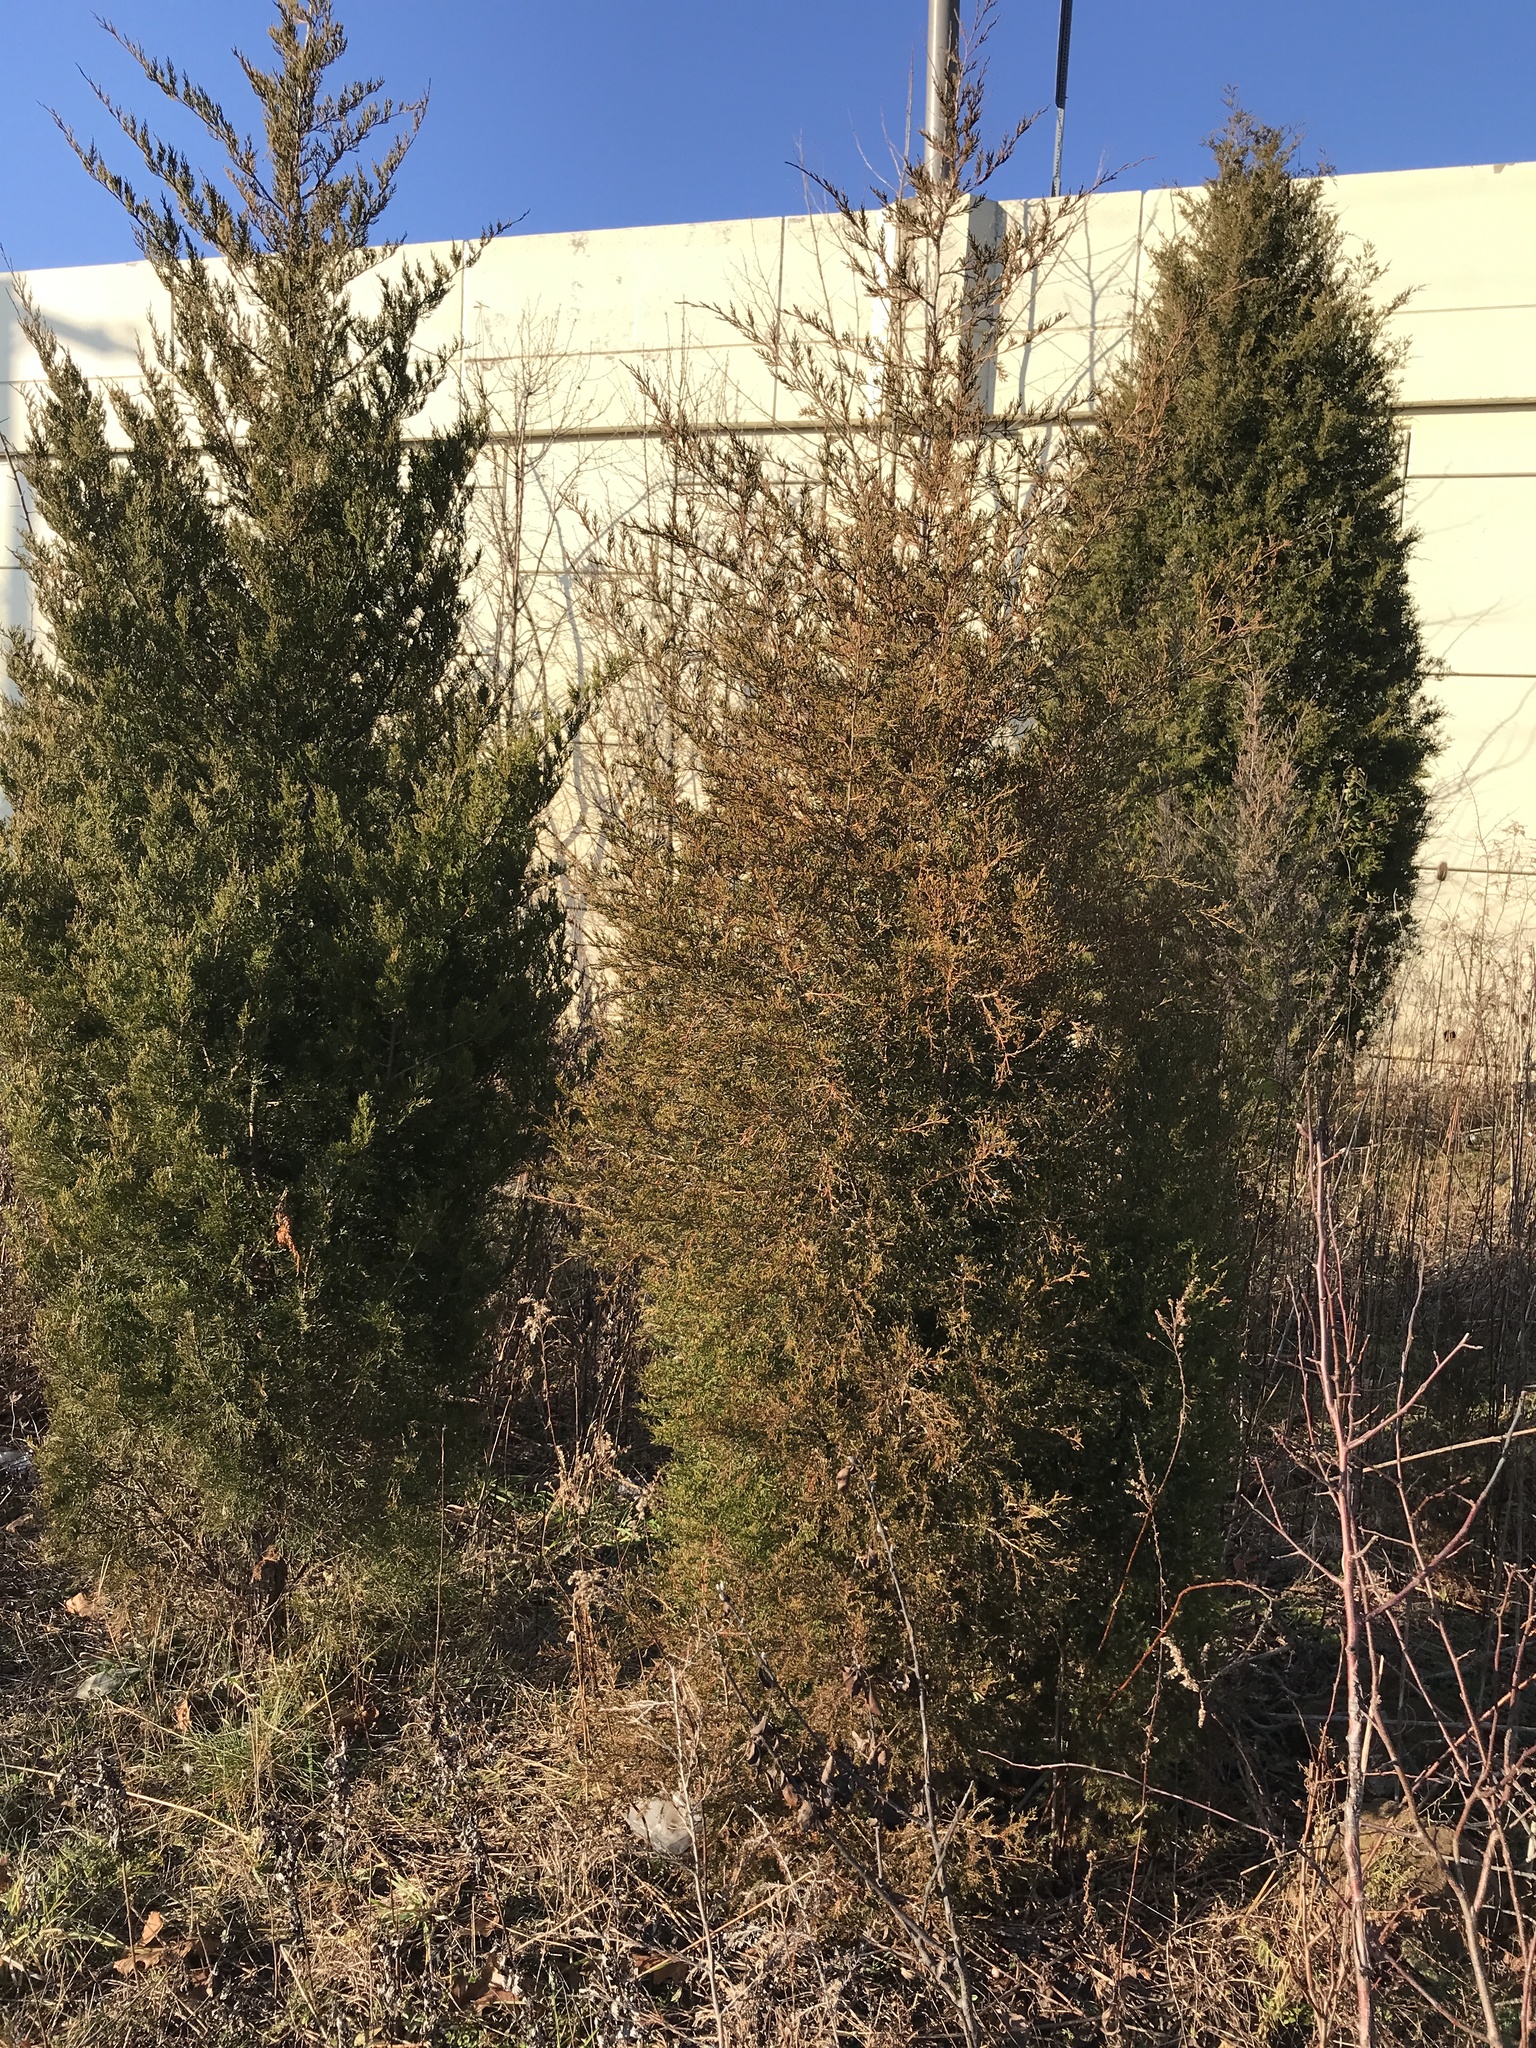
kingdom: Plantae
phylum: Tracheophyta
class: Pinopsida
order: Pinales
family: Cupressaceae
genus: Juniperus
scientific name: Juniperus virginiana
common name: Red juniper
